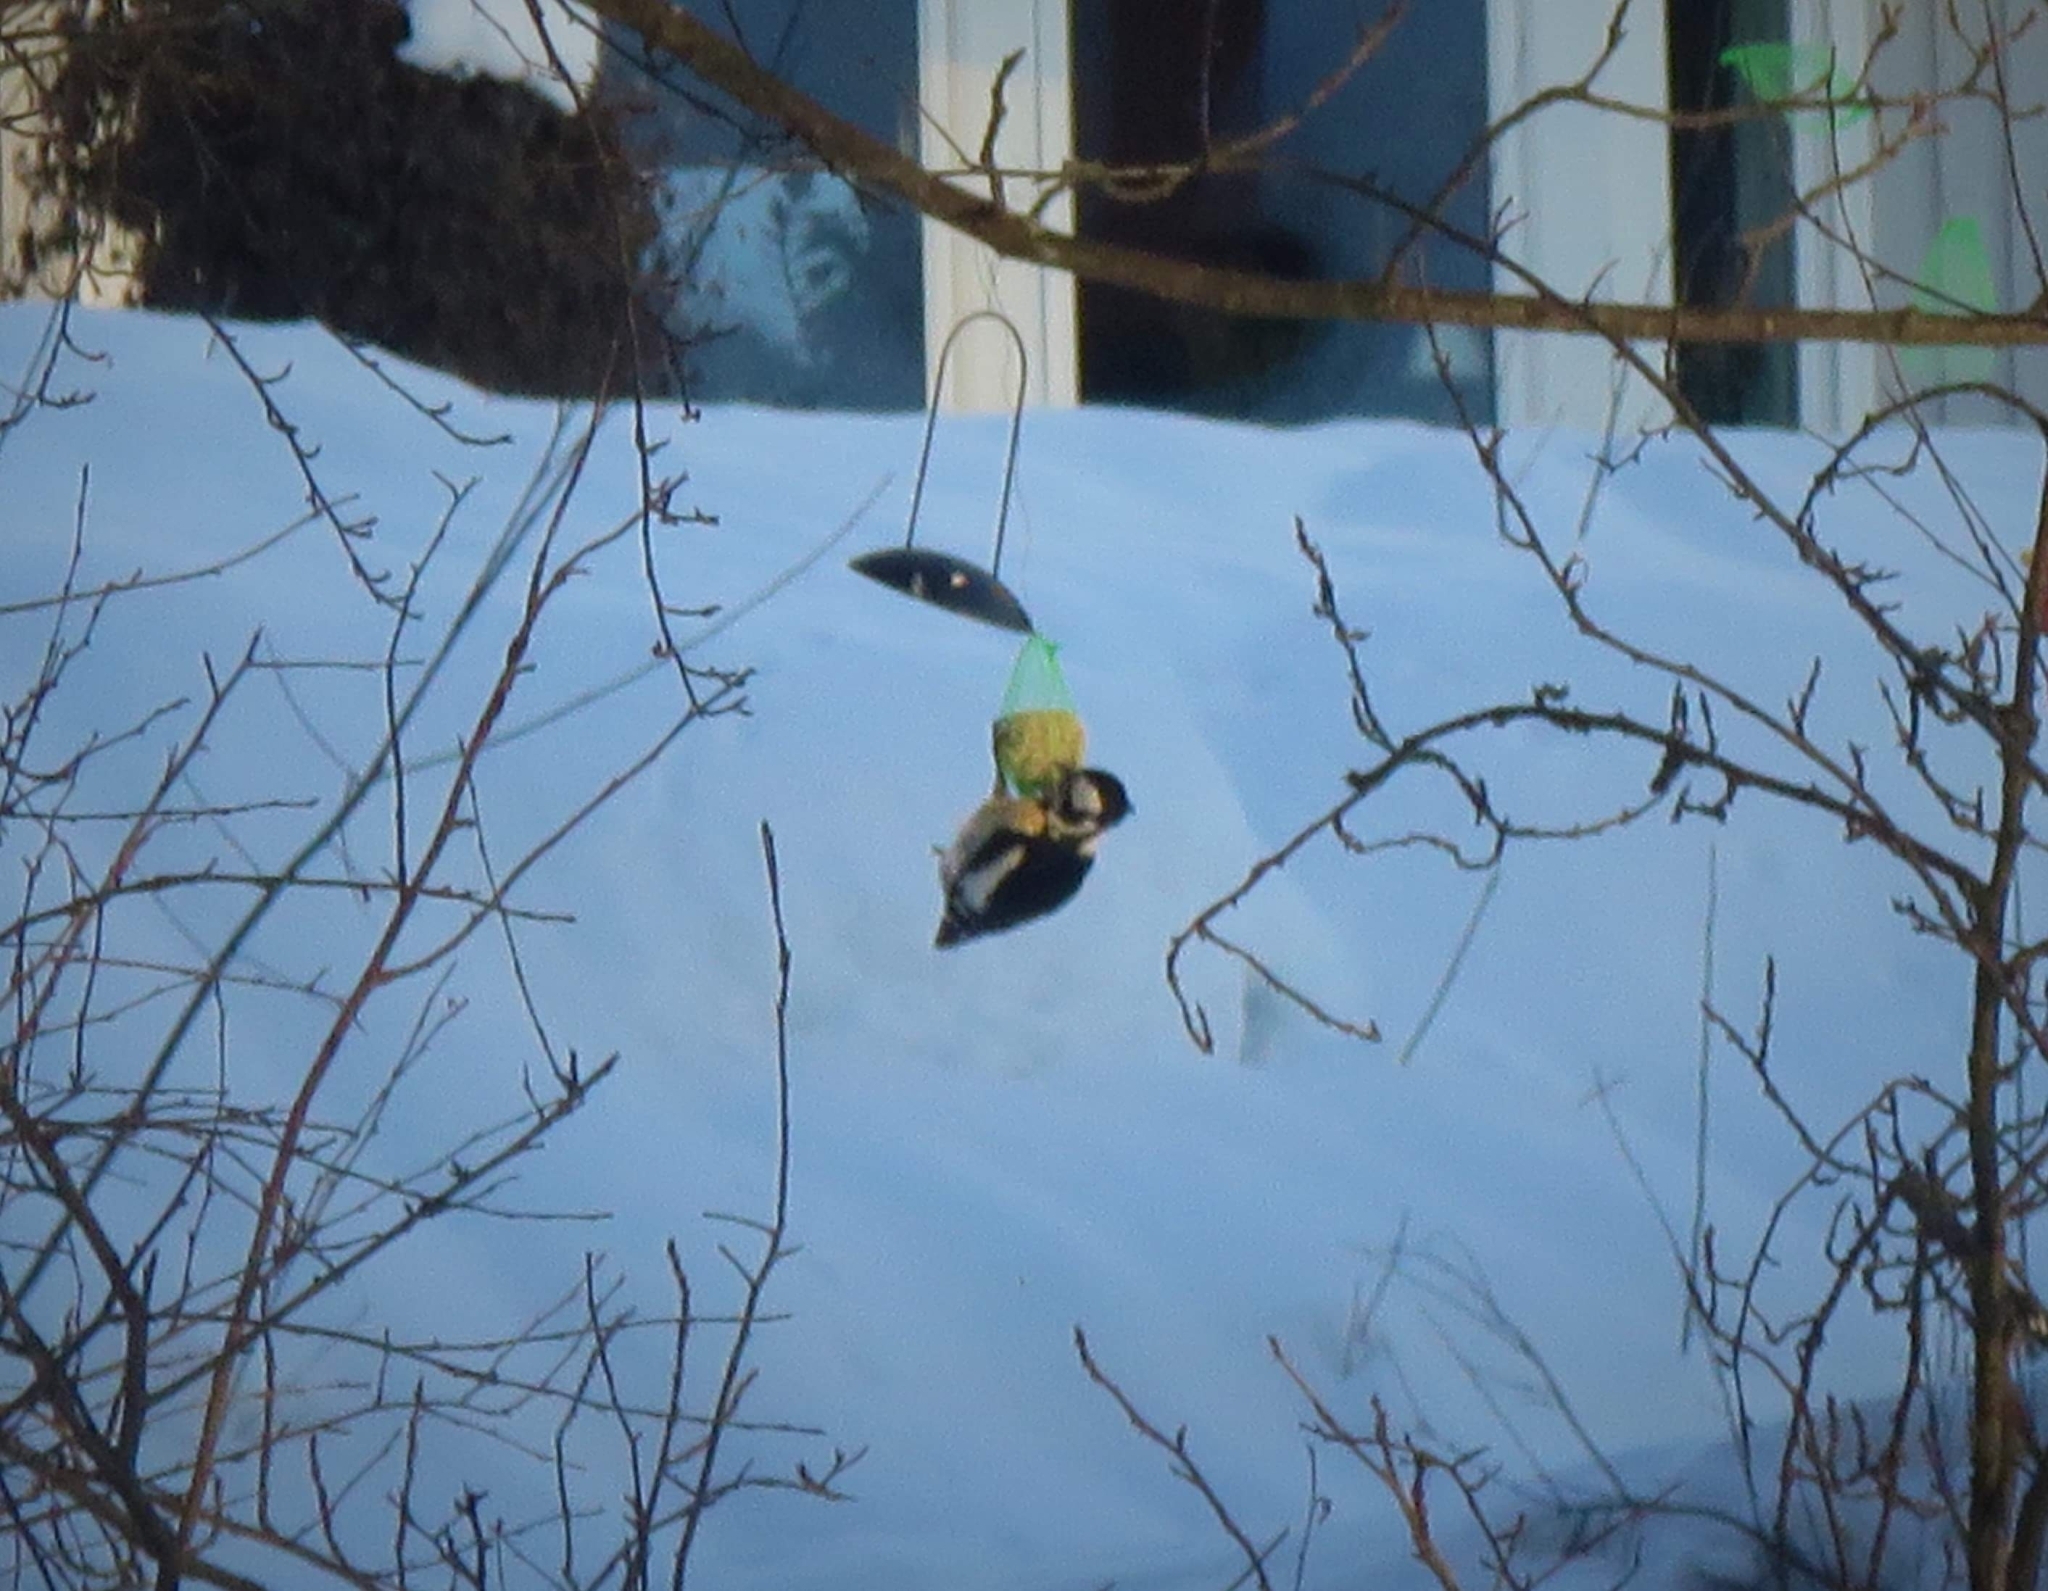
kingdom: Animalia
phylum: Chordata
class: Aves
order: Piciformes
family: Picidae
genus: Dendrocopos
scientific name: Dendrocopos major
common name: Great spotted woodpecker
